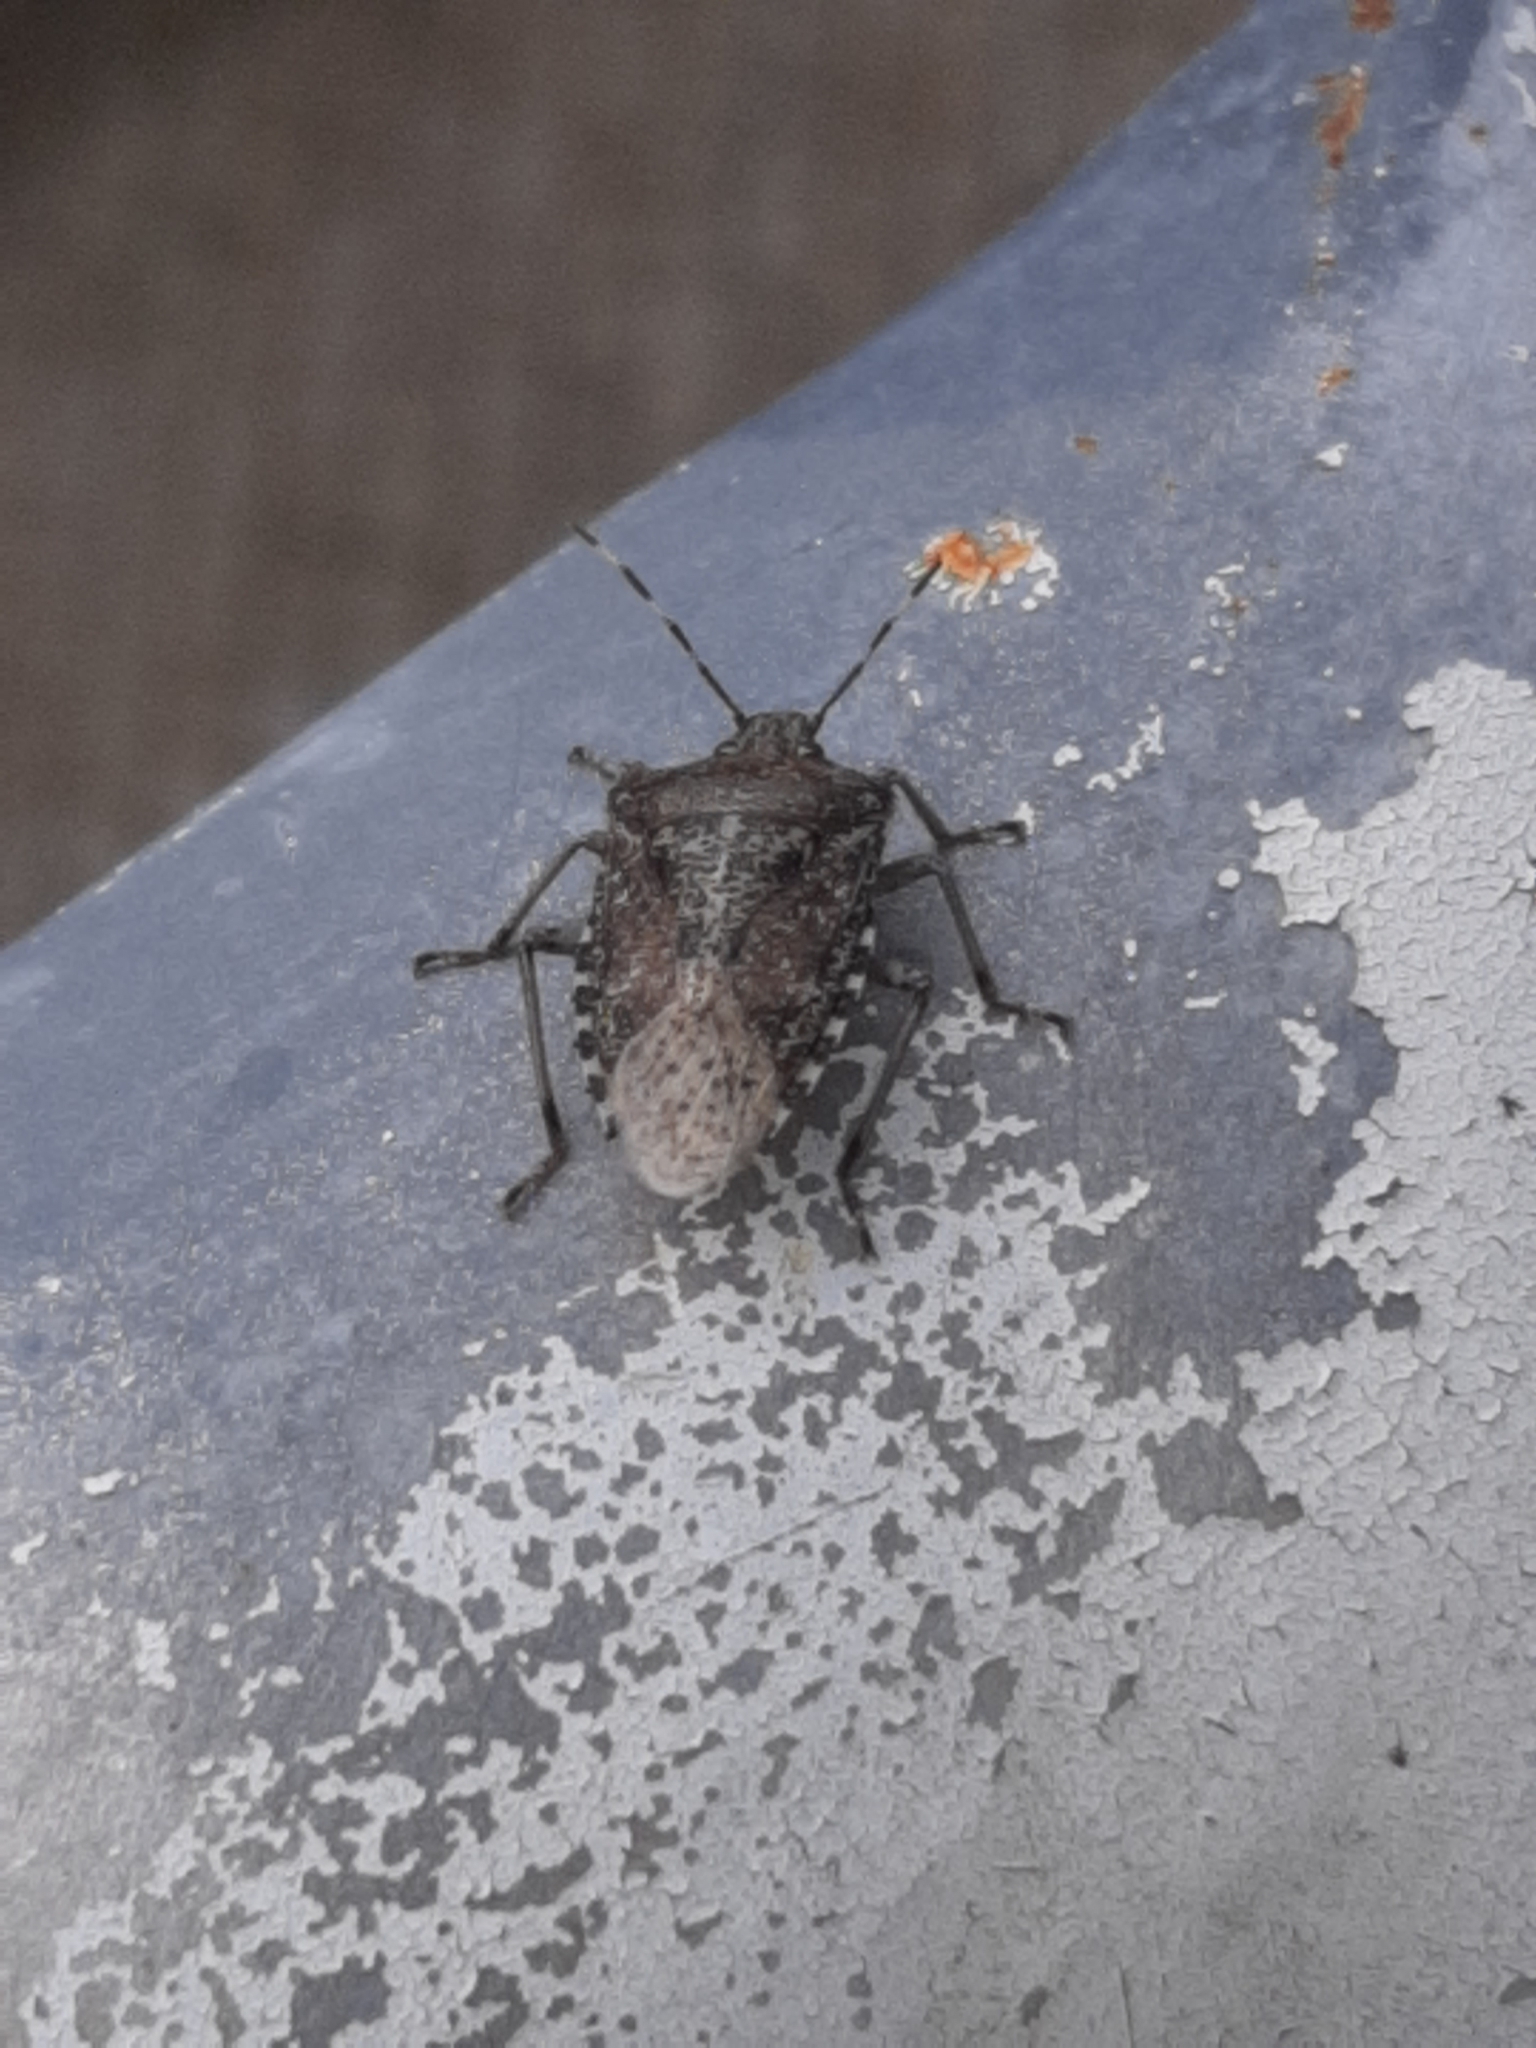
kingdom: Animalia
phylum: Arthropoda
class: Insecta
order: Hemiptera
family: Pentatomidae
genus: Rhaphigaster
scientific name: Rhaphigaster nebulosa
